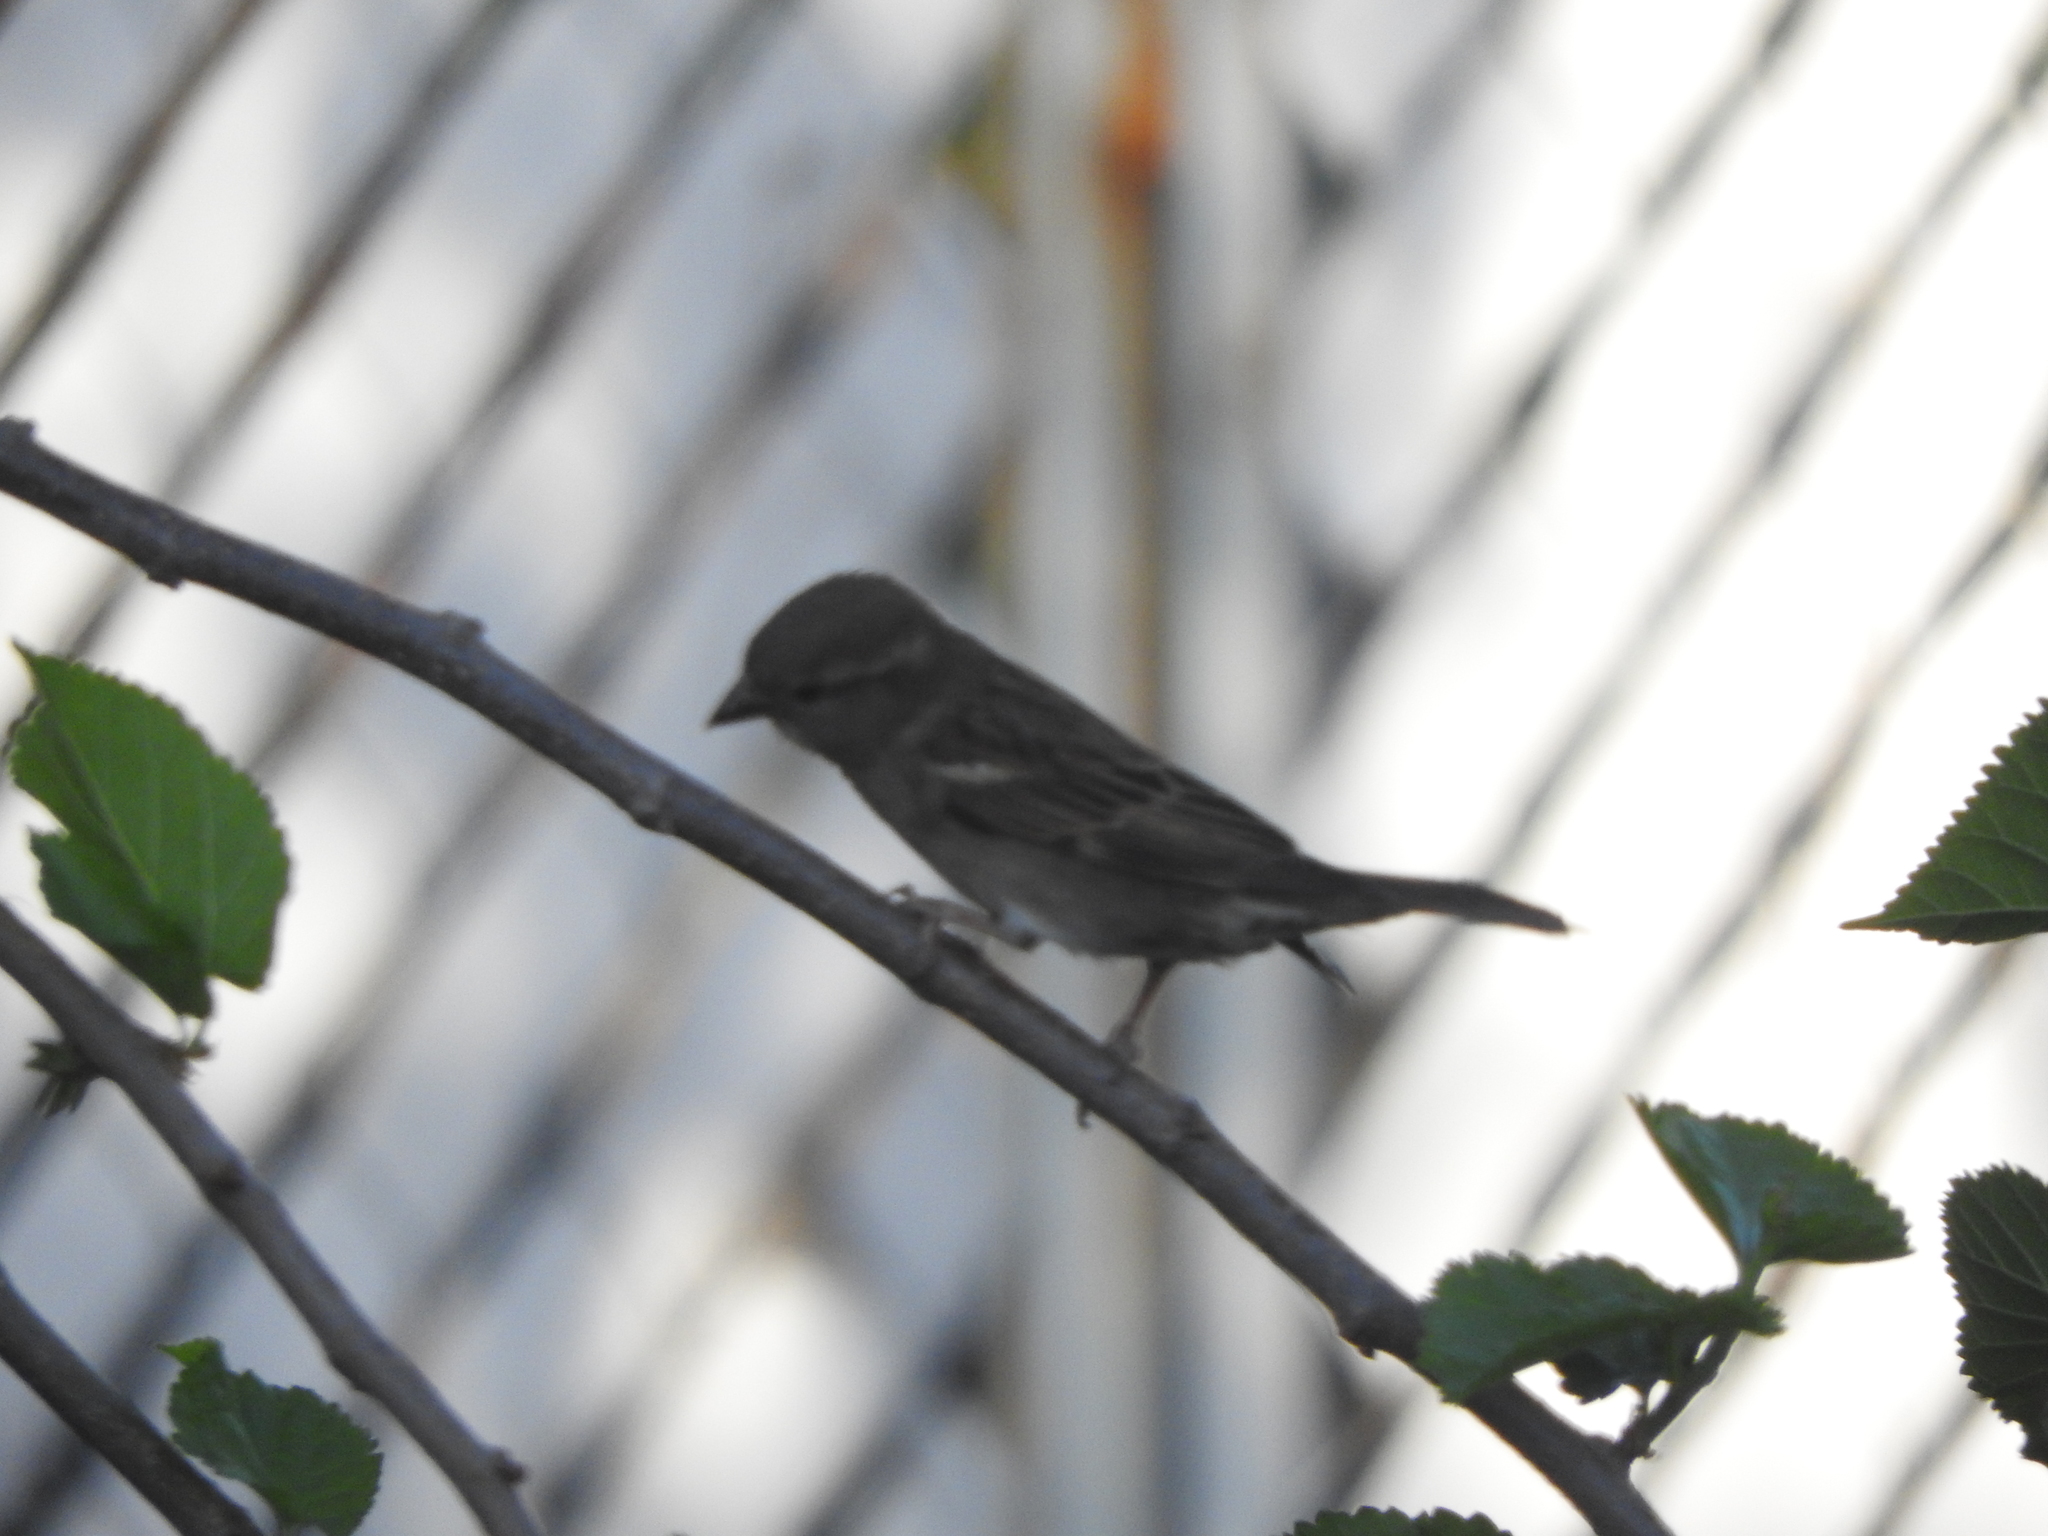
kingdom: Animalia
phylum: Chordata
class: Aves
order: Passeriformes
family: Passeridae
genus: Passer
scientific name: Passer domesticus
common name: House sparrow
